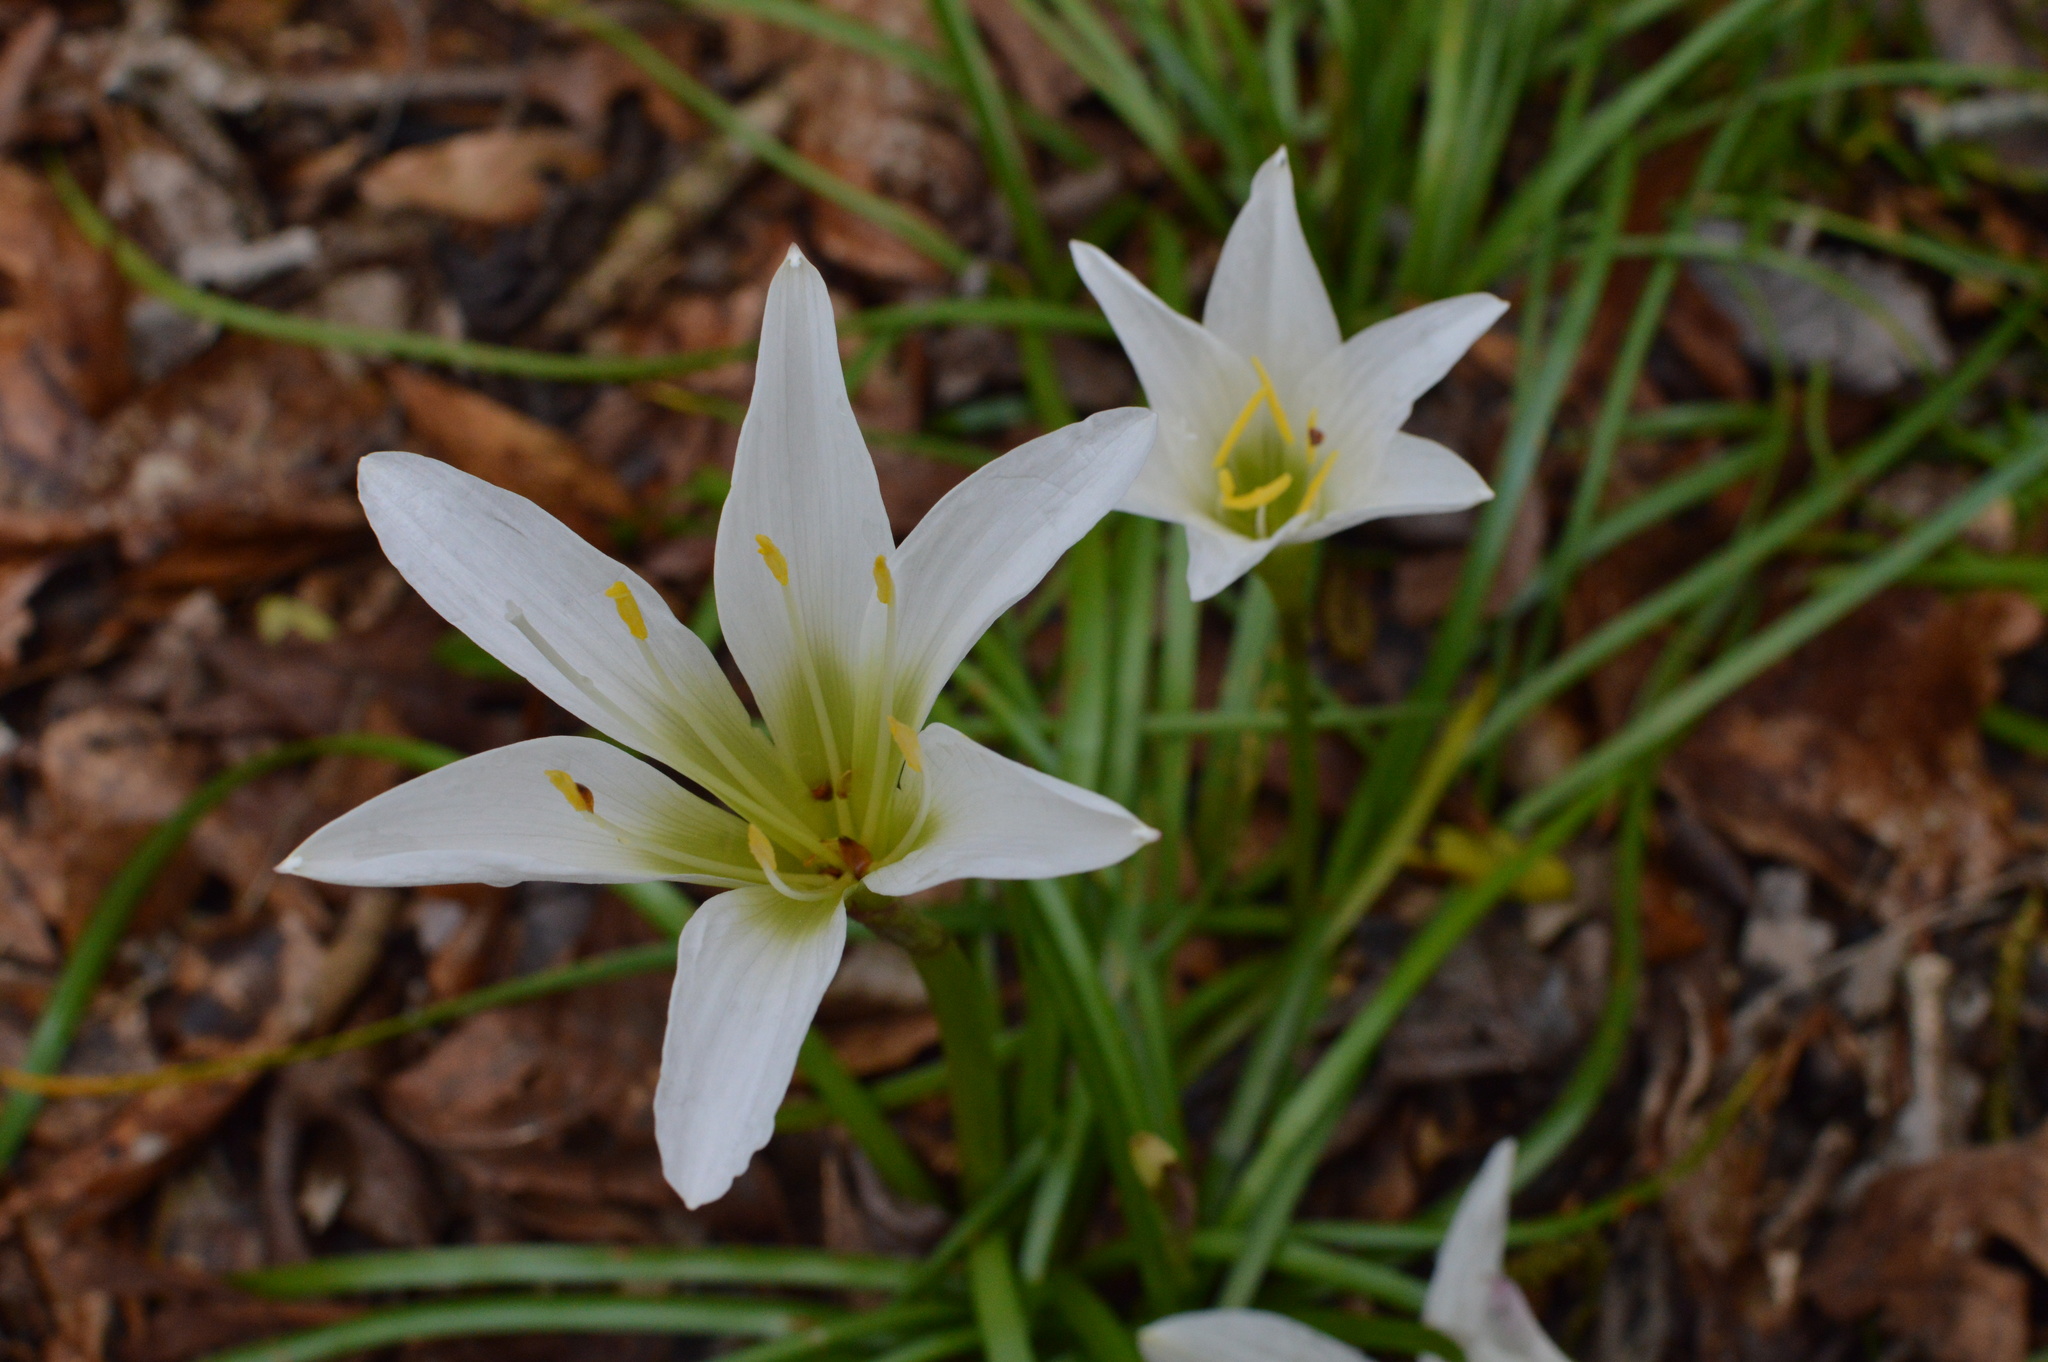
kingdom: Plantae
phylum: Tracheophyta
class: Liliopsida
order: Asparagales
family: Amaryllidaceae
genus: Zephyranthes
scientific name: Zephyranthes atamasco
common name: Atamasco lily
